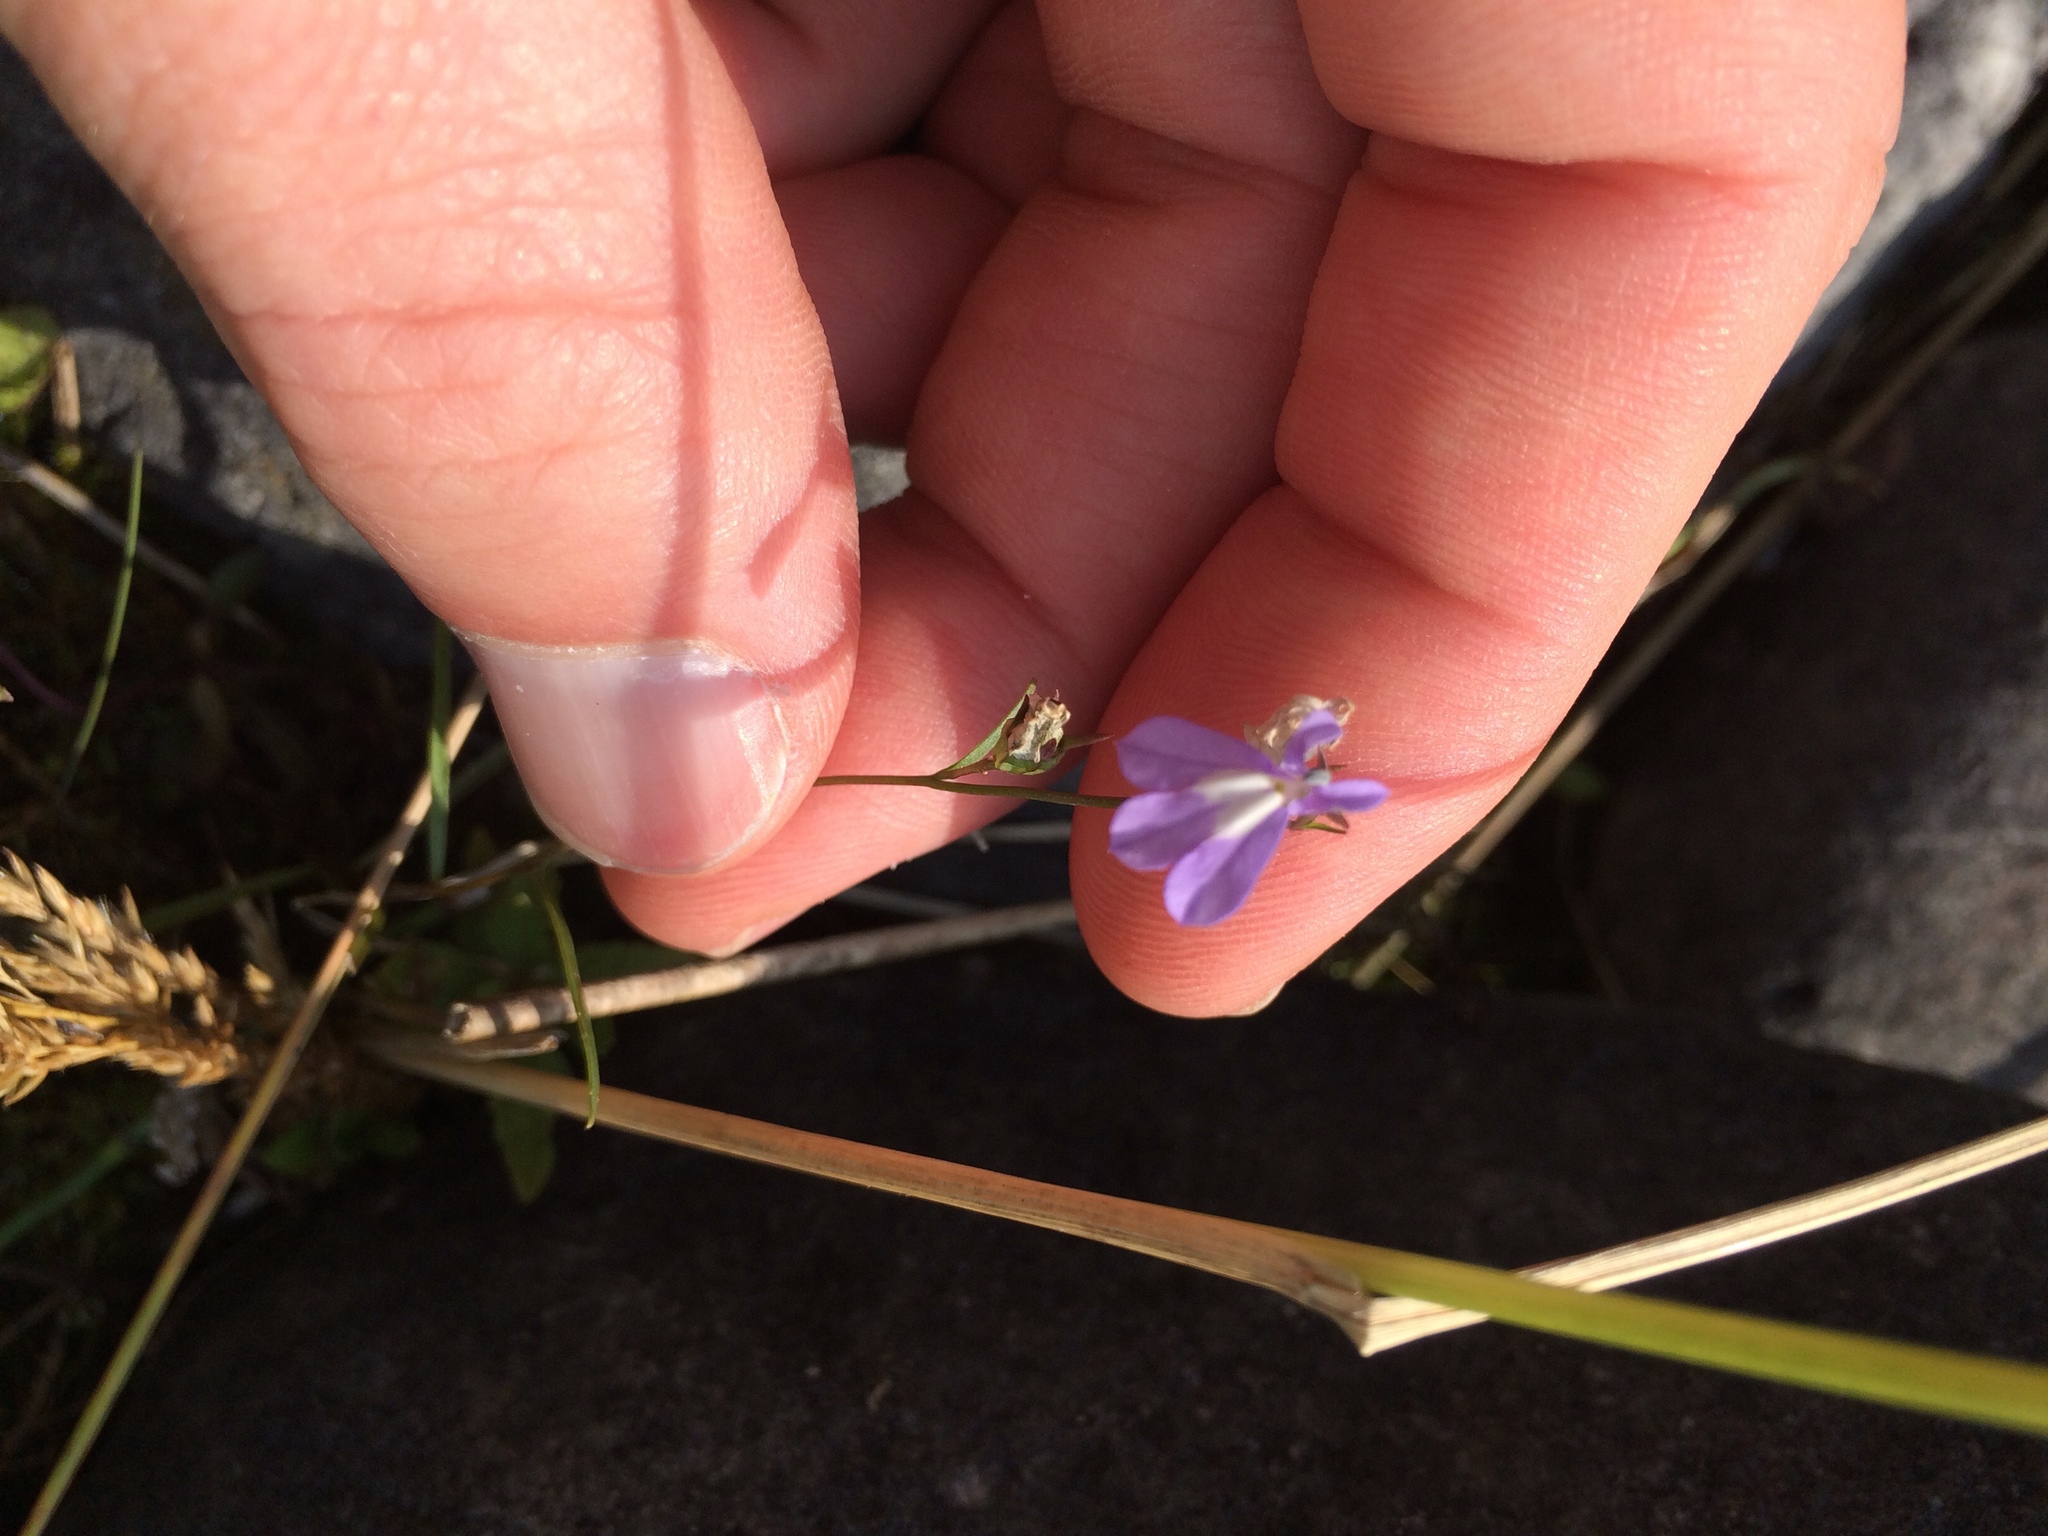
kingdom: Plantae
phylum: Tracheophyta
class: Magnoliopsida
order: Asterales
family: Campanulaceae
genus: Lobelia
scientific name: Lobelia kalmii
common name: Kalm's lobelia
